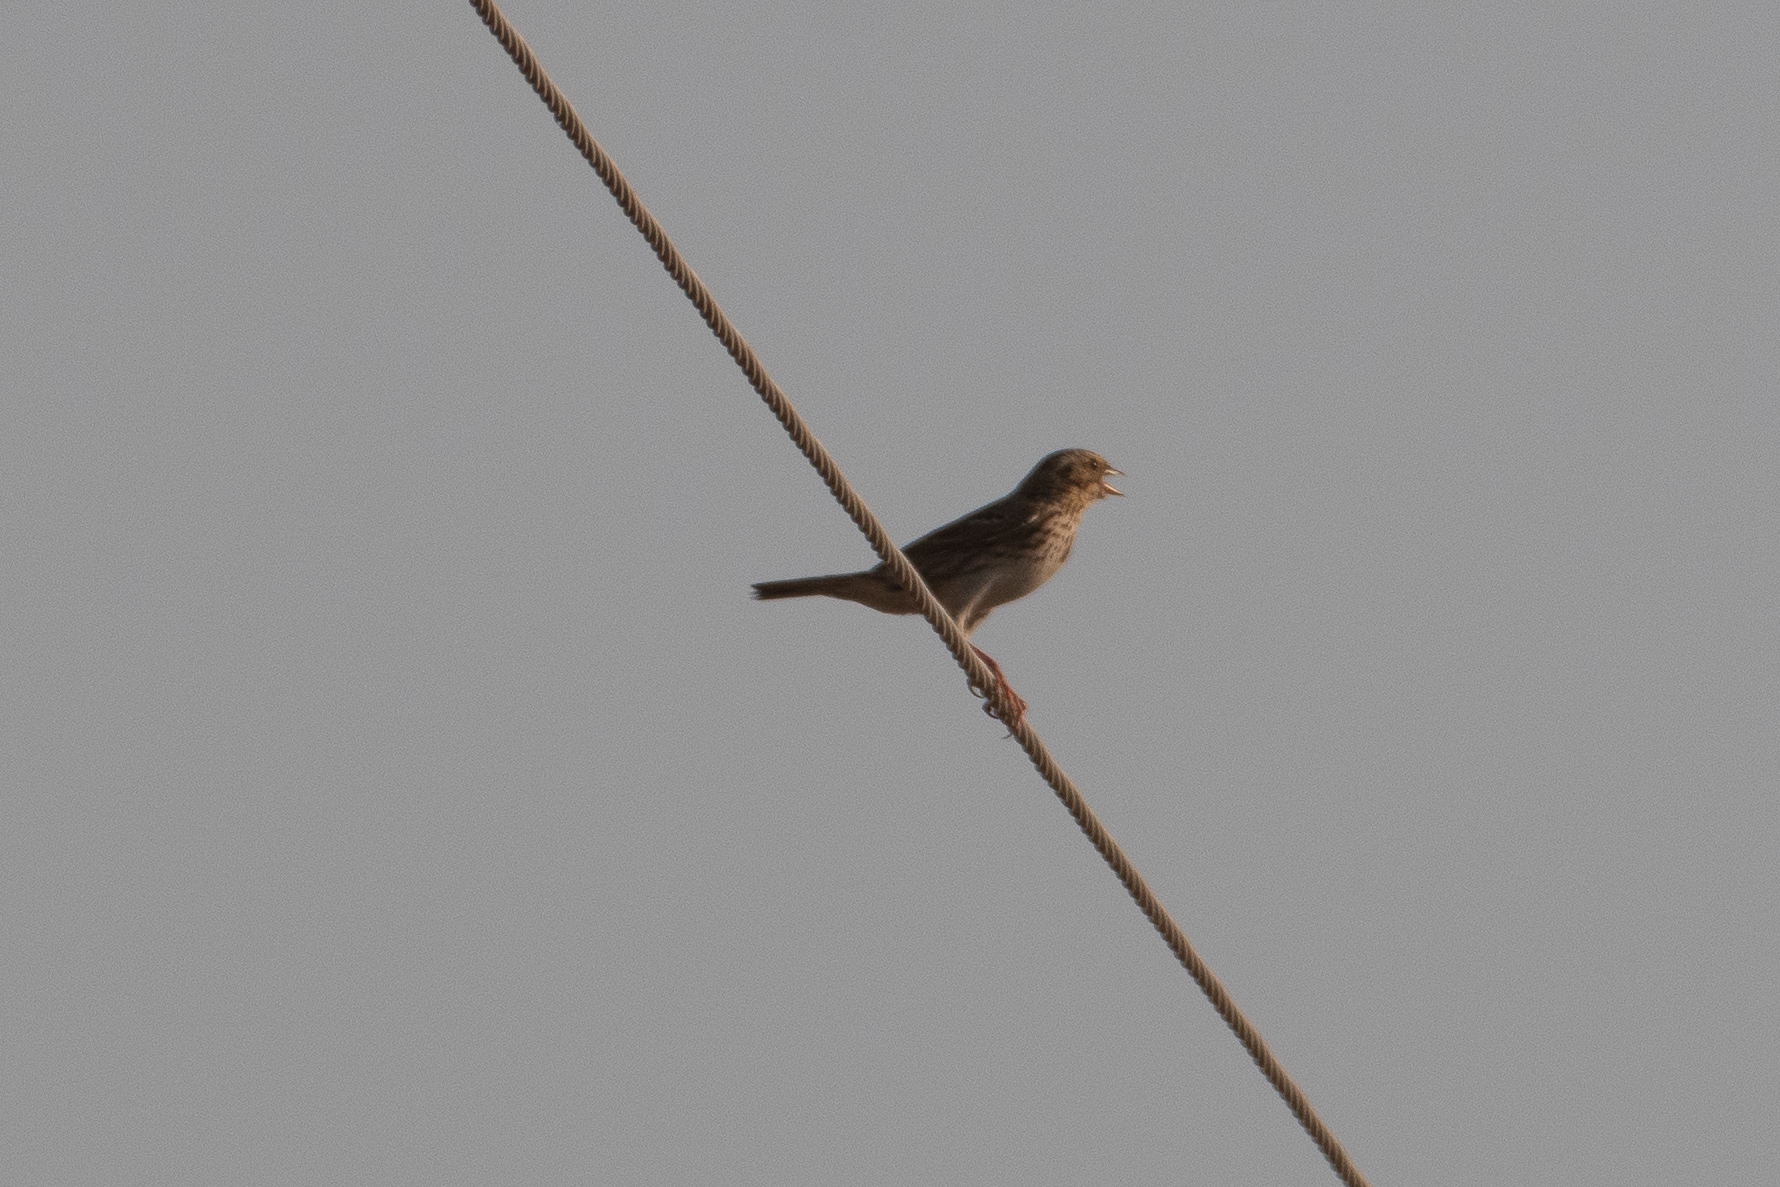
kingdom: Animalia
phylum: Chordata
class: Aves
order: Passeriformes
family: Passerellidae
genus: Passerculus
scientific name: Passerculus sandwichensis
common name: Savannah sparrow
